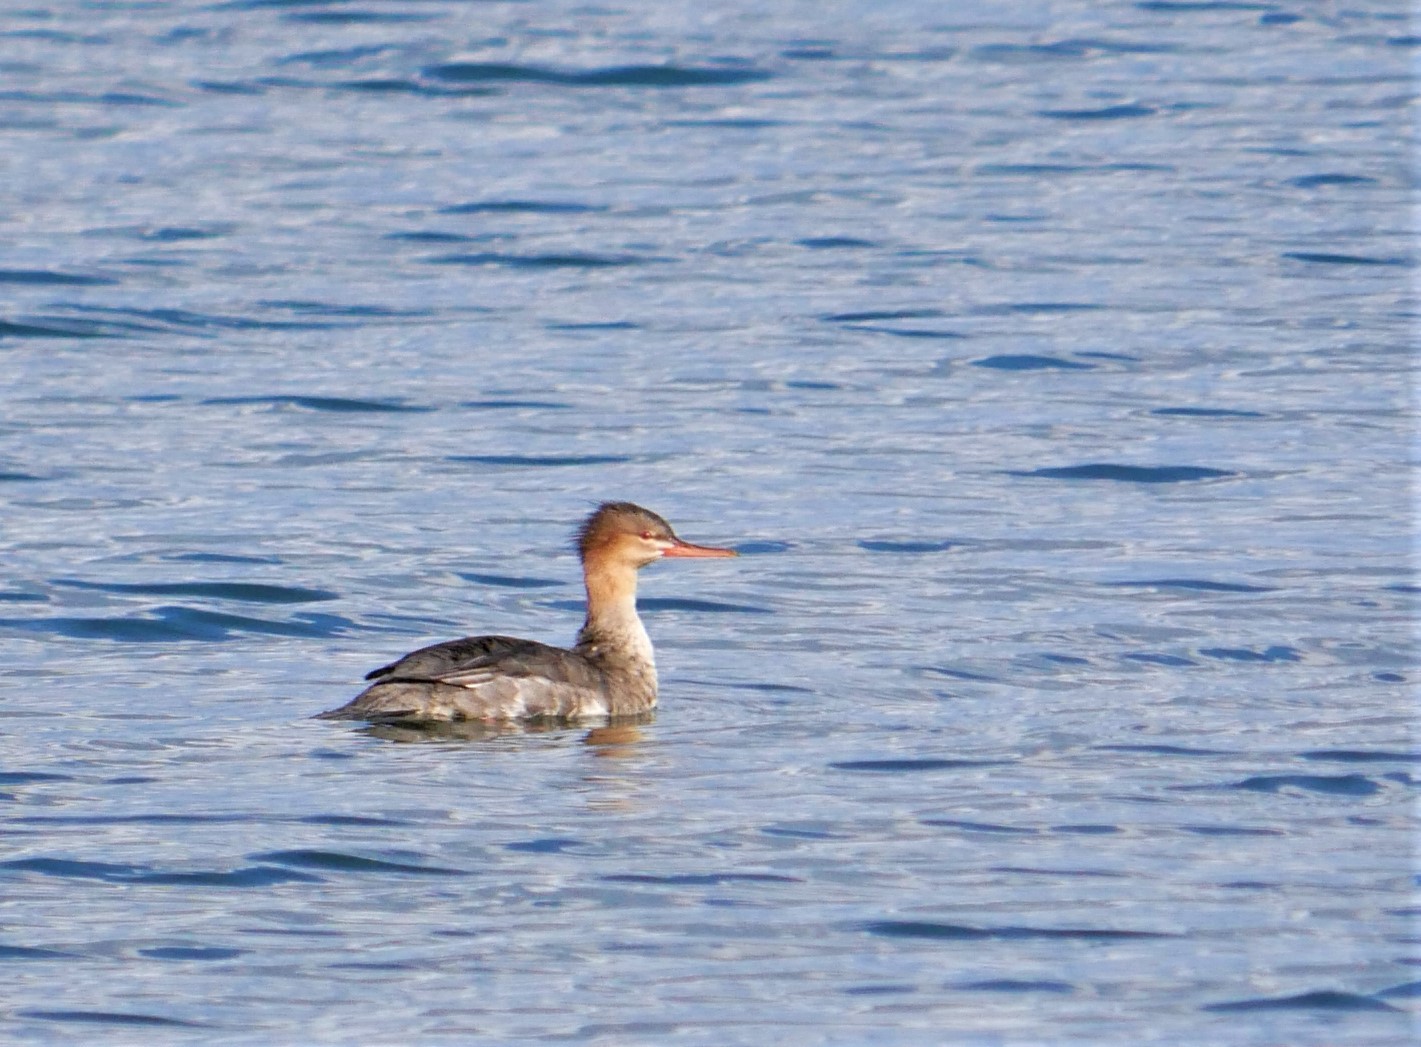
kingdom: Animalia
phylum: Chordata
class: Aves
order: Anseriformes
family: Anatidae
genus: Mergus
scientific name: Mergus serrator
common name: Red-breasted merganser
